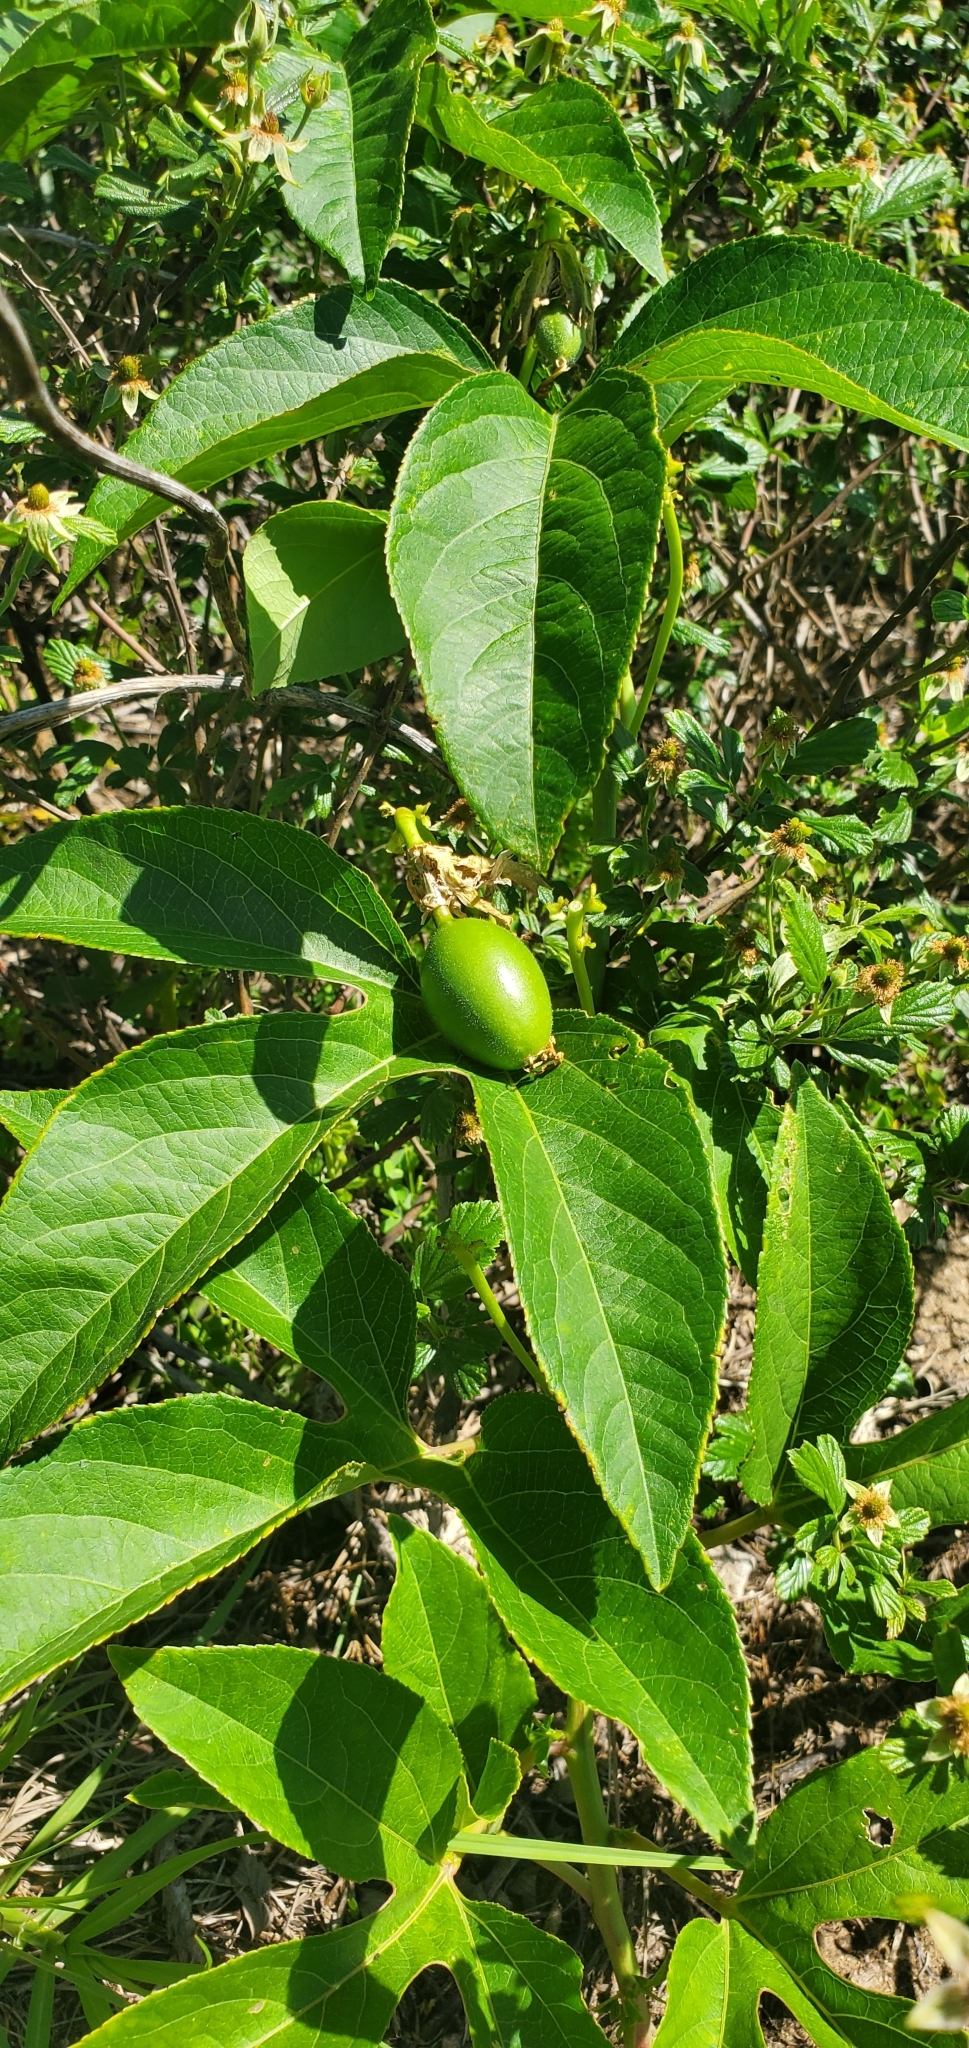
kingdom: Plantae
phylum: Tracheophyta
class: Magnoliopsida
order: Malpighiales
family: Passifloraceae
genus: Passiflora
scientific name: Passiflora incarnata
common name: Apricot-vine
